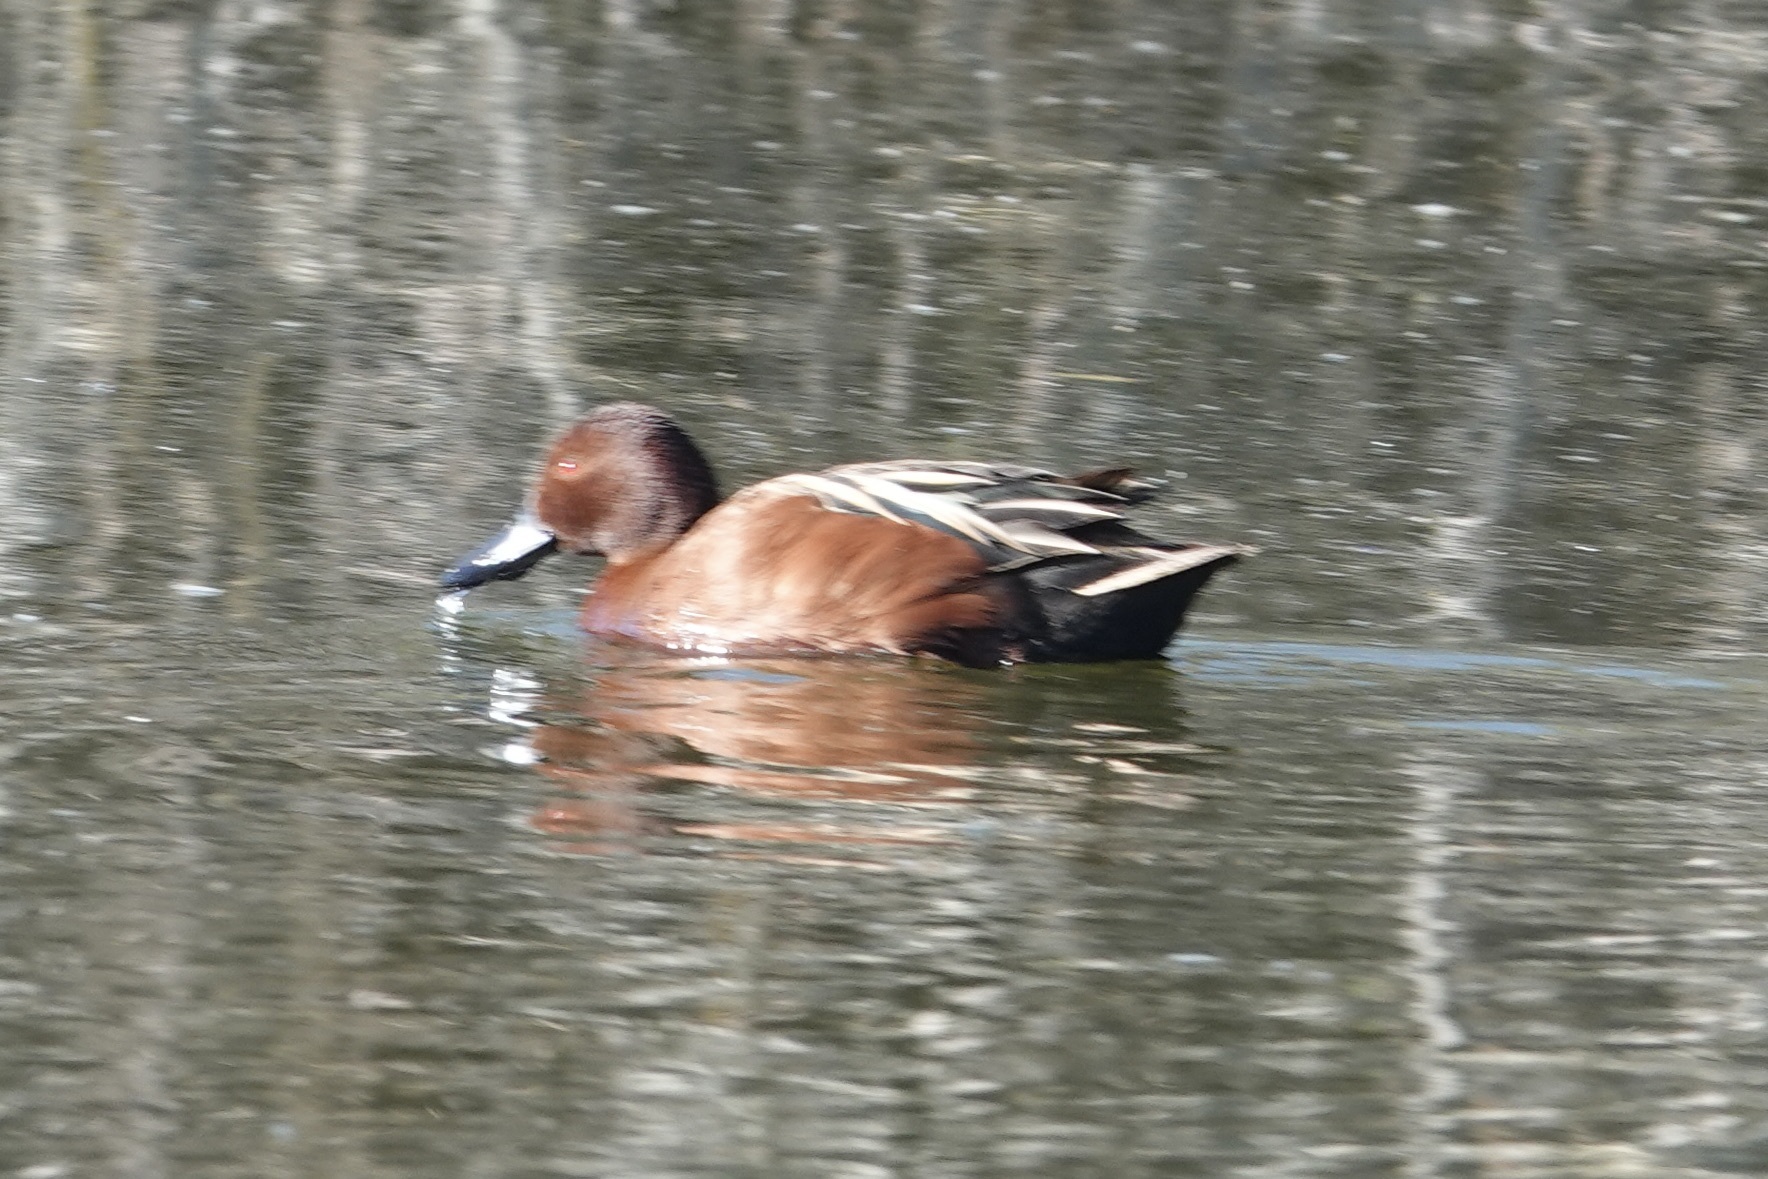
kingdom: Animalia
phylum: Chordata
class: Aves
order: Anseriformes
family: Anatidae
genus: Spatula
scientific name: Spatula cyanoptera
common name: Cinnamon teal
